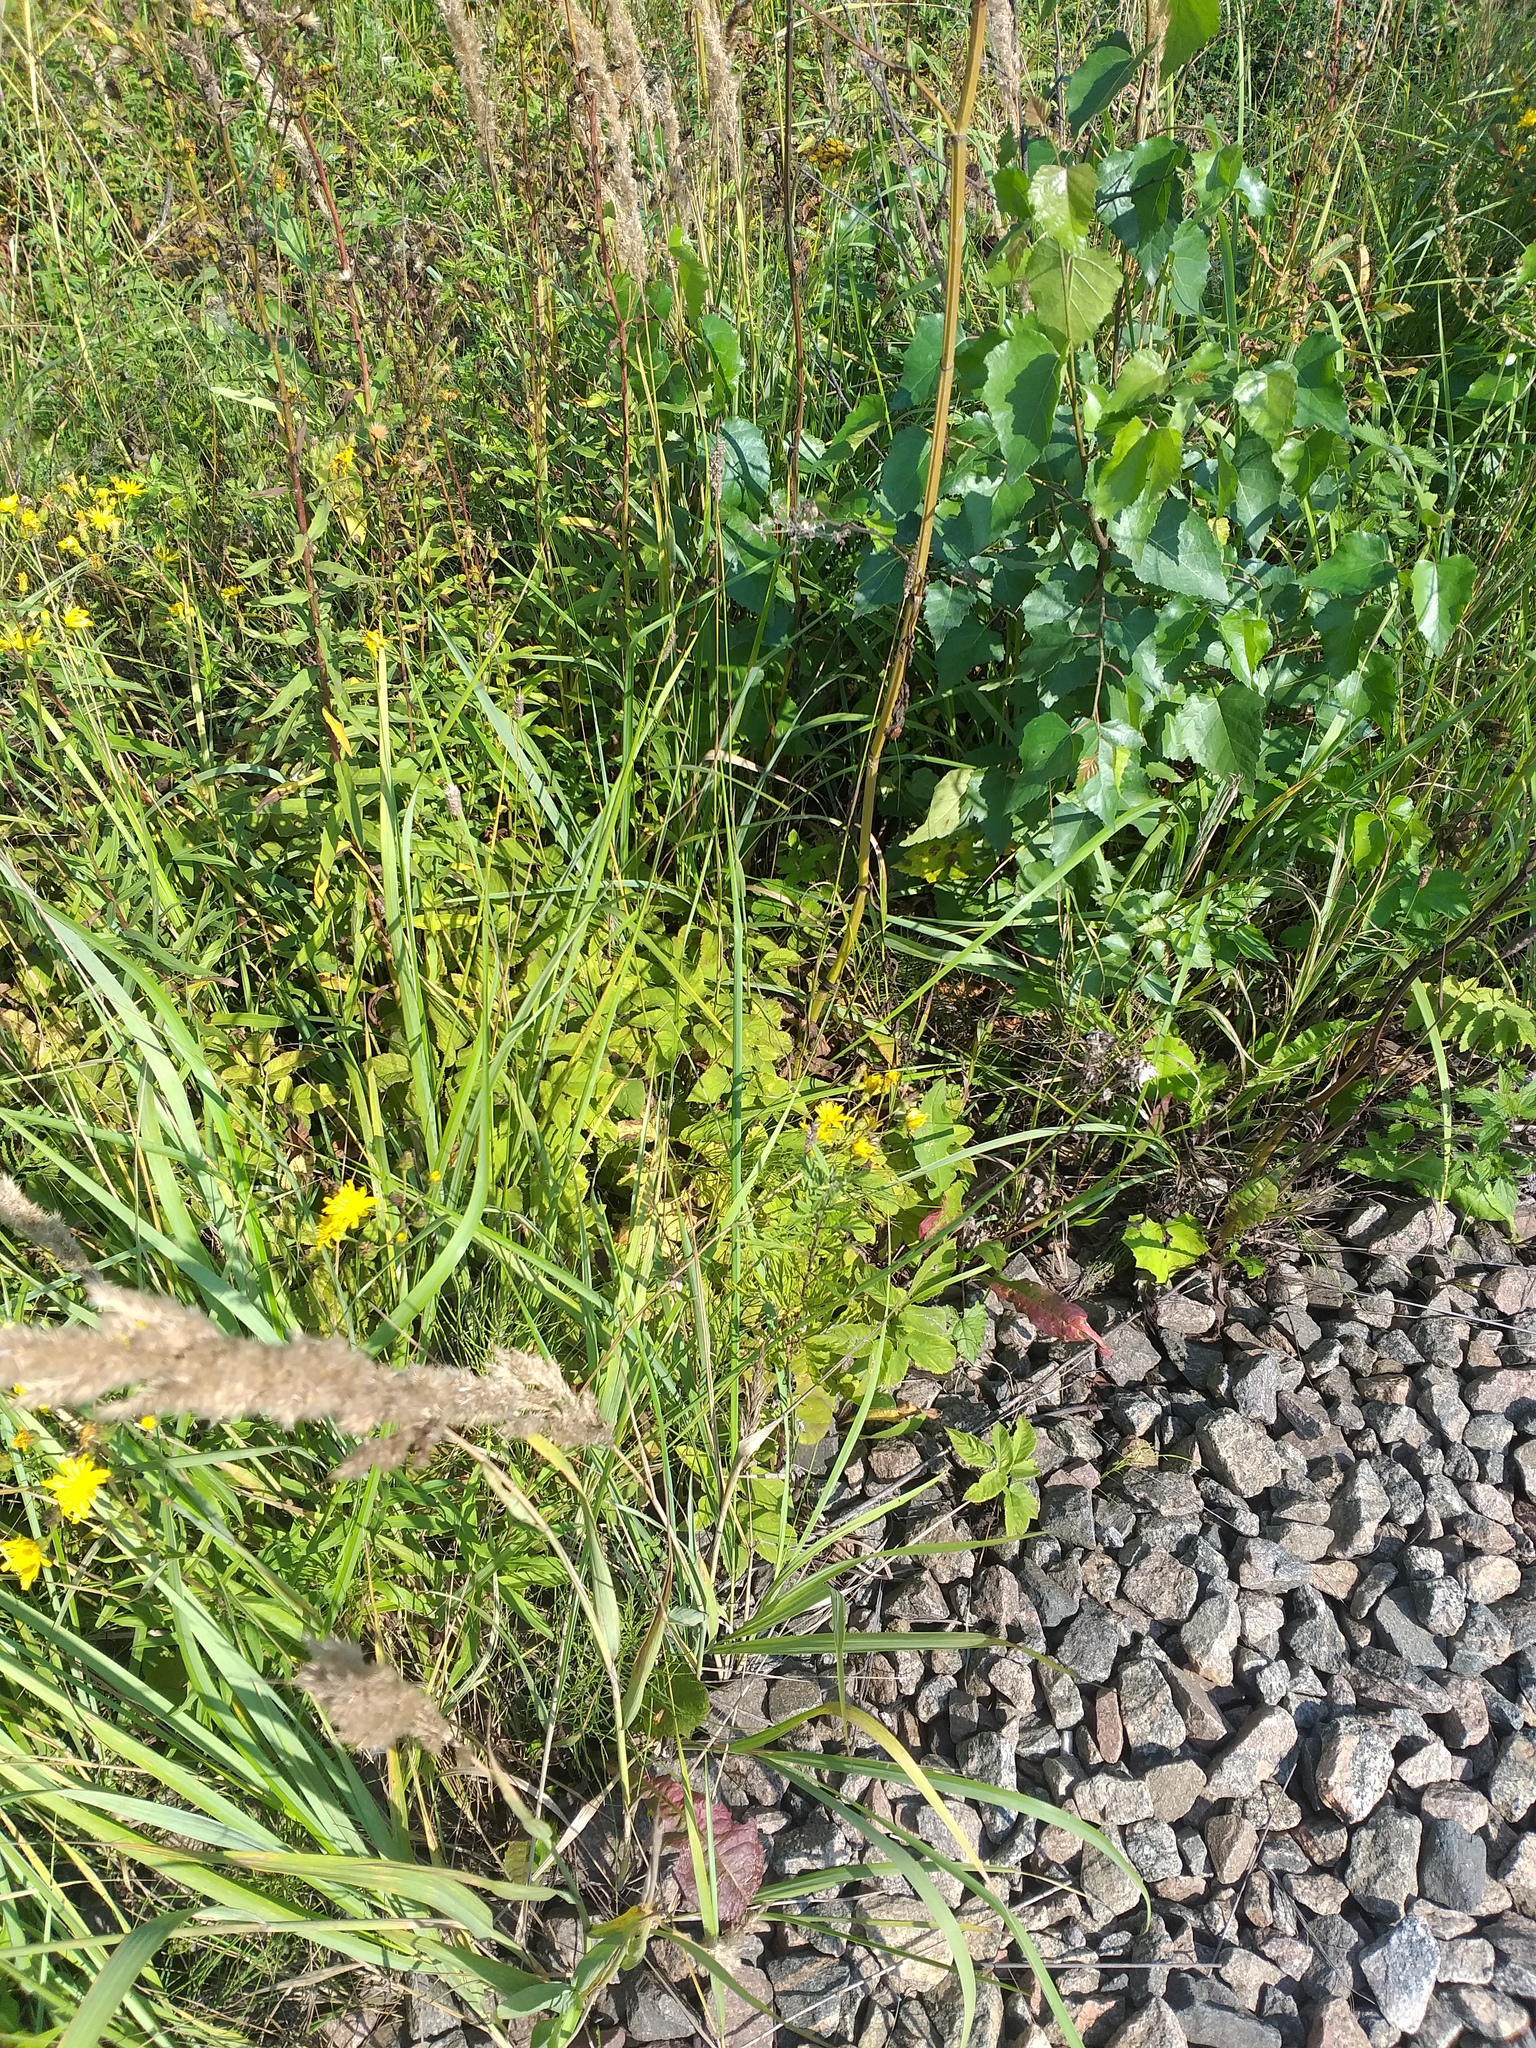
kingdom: Plantae
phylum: Tracheophyta
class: Magnoliopsida
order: Apiales
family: Apiaceae
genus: Aegopodium
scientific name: Aegopodium podagraria
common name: Ground-elder
